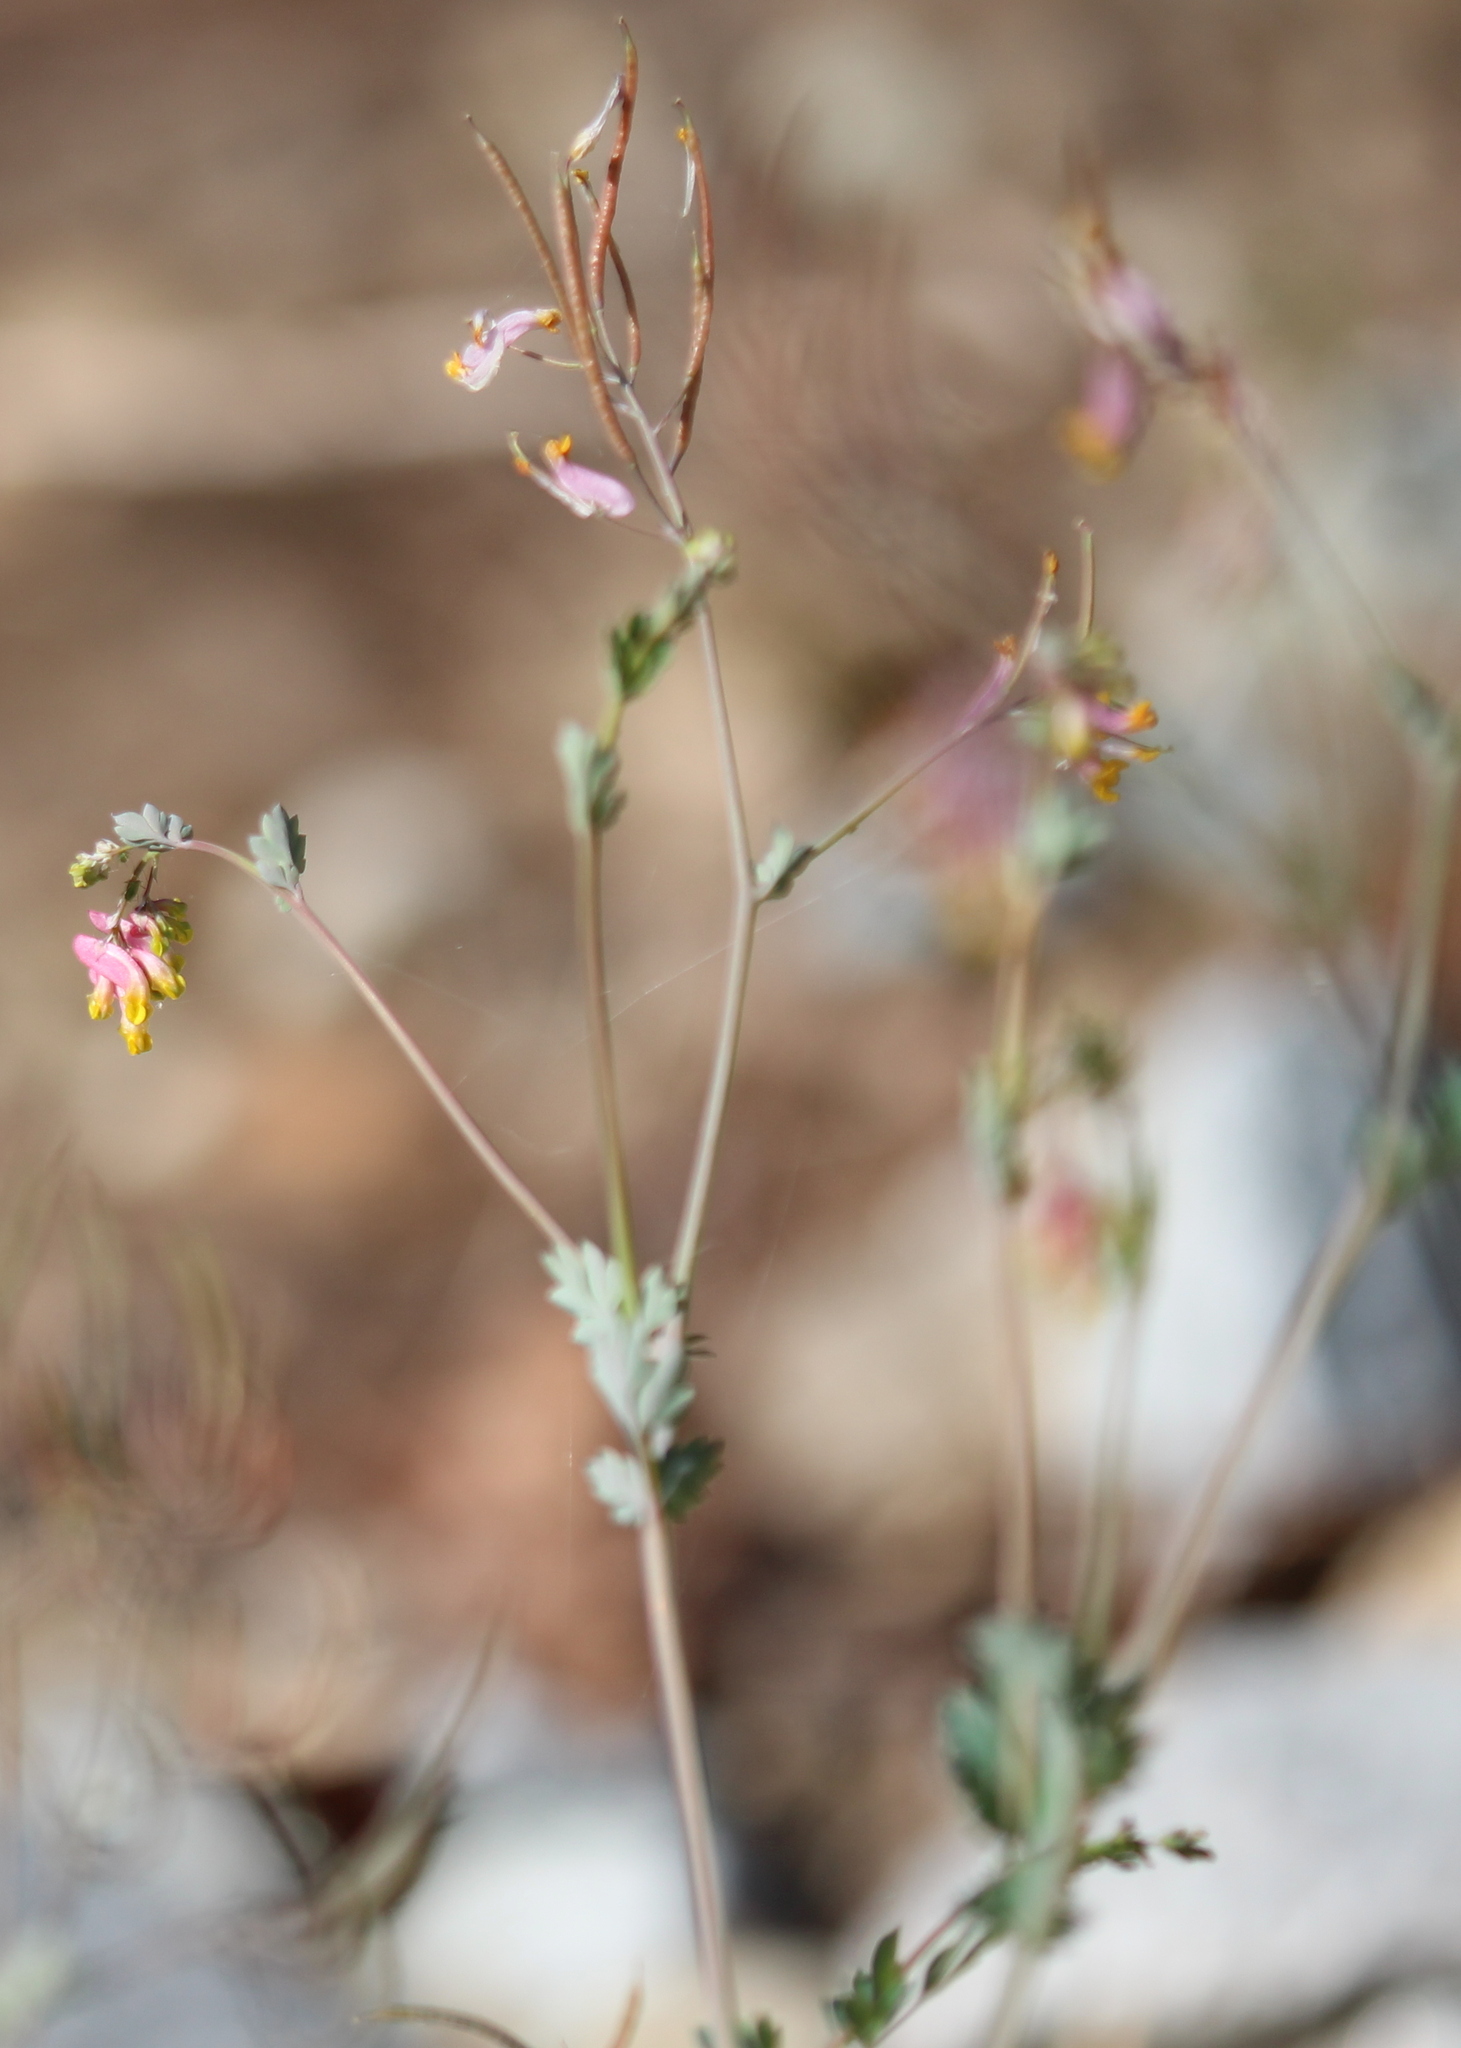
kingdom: Plantae
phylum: Tracheophyta
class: Magnoliopsida
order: Ranunculales
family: Papaveraceae
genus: Capnoides
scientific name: Capnoides sempervirens
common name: Rock harlequin
